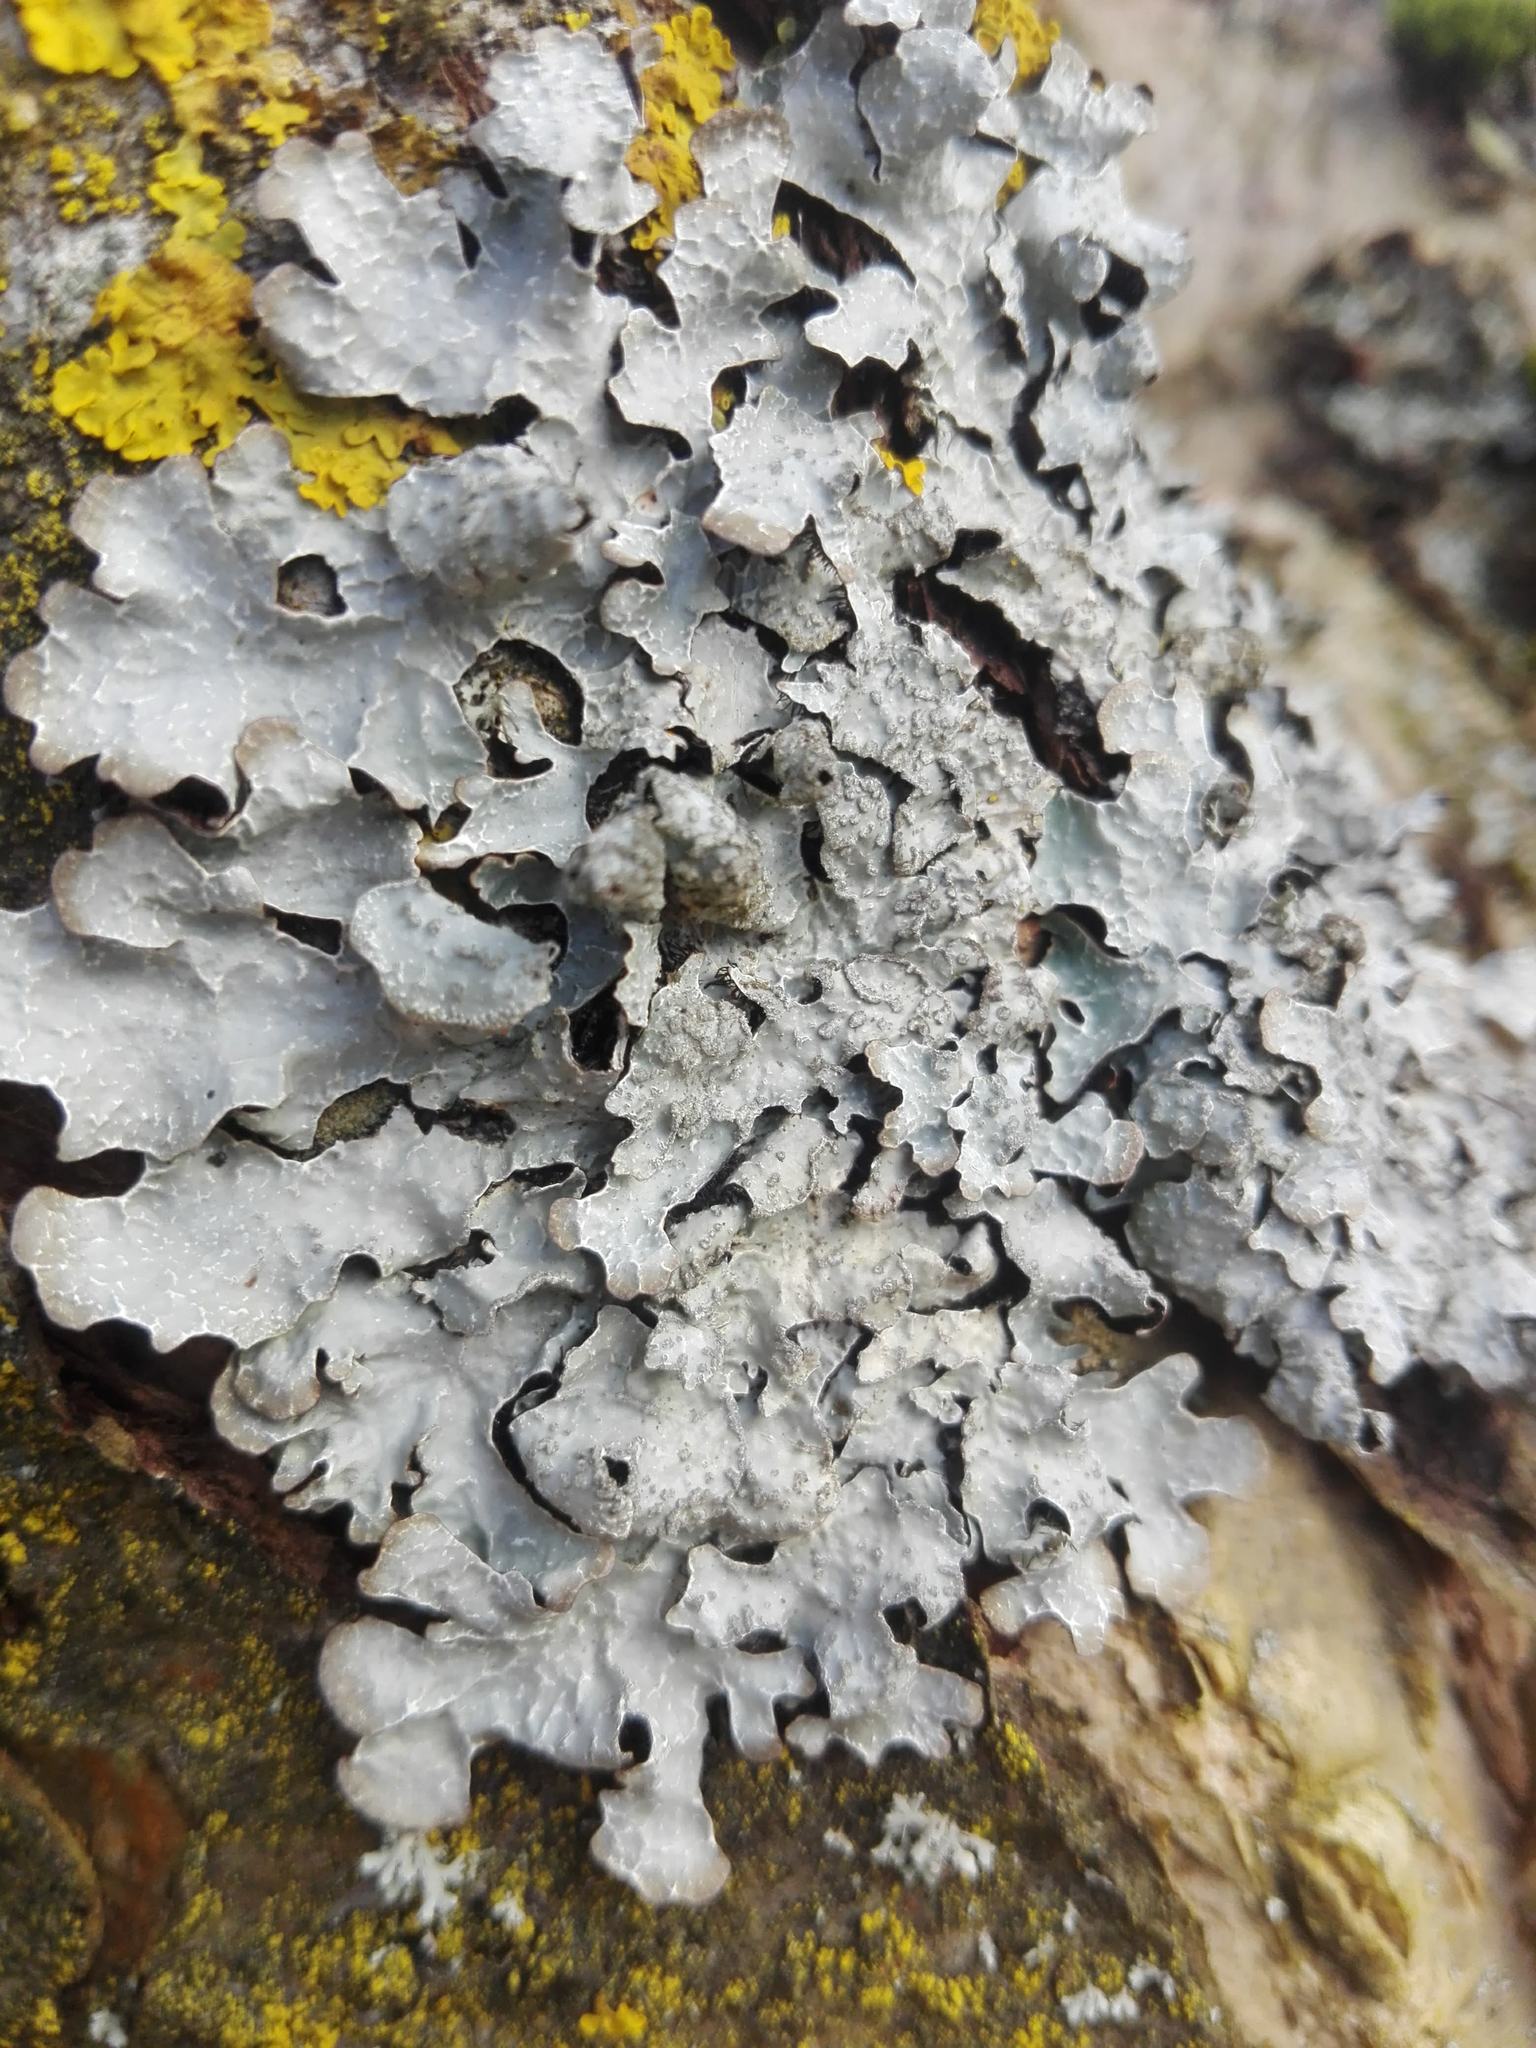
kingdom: Fungi
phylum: Ascomycota
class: Lecanoromycetes
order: Lecanorales
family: Parmeliaceae
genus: Parmelia
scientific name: Parmelia sulcata
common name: Netted shield lichen
